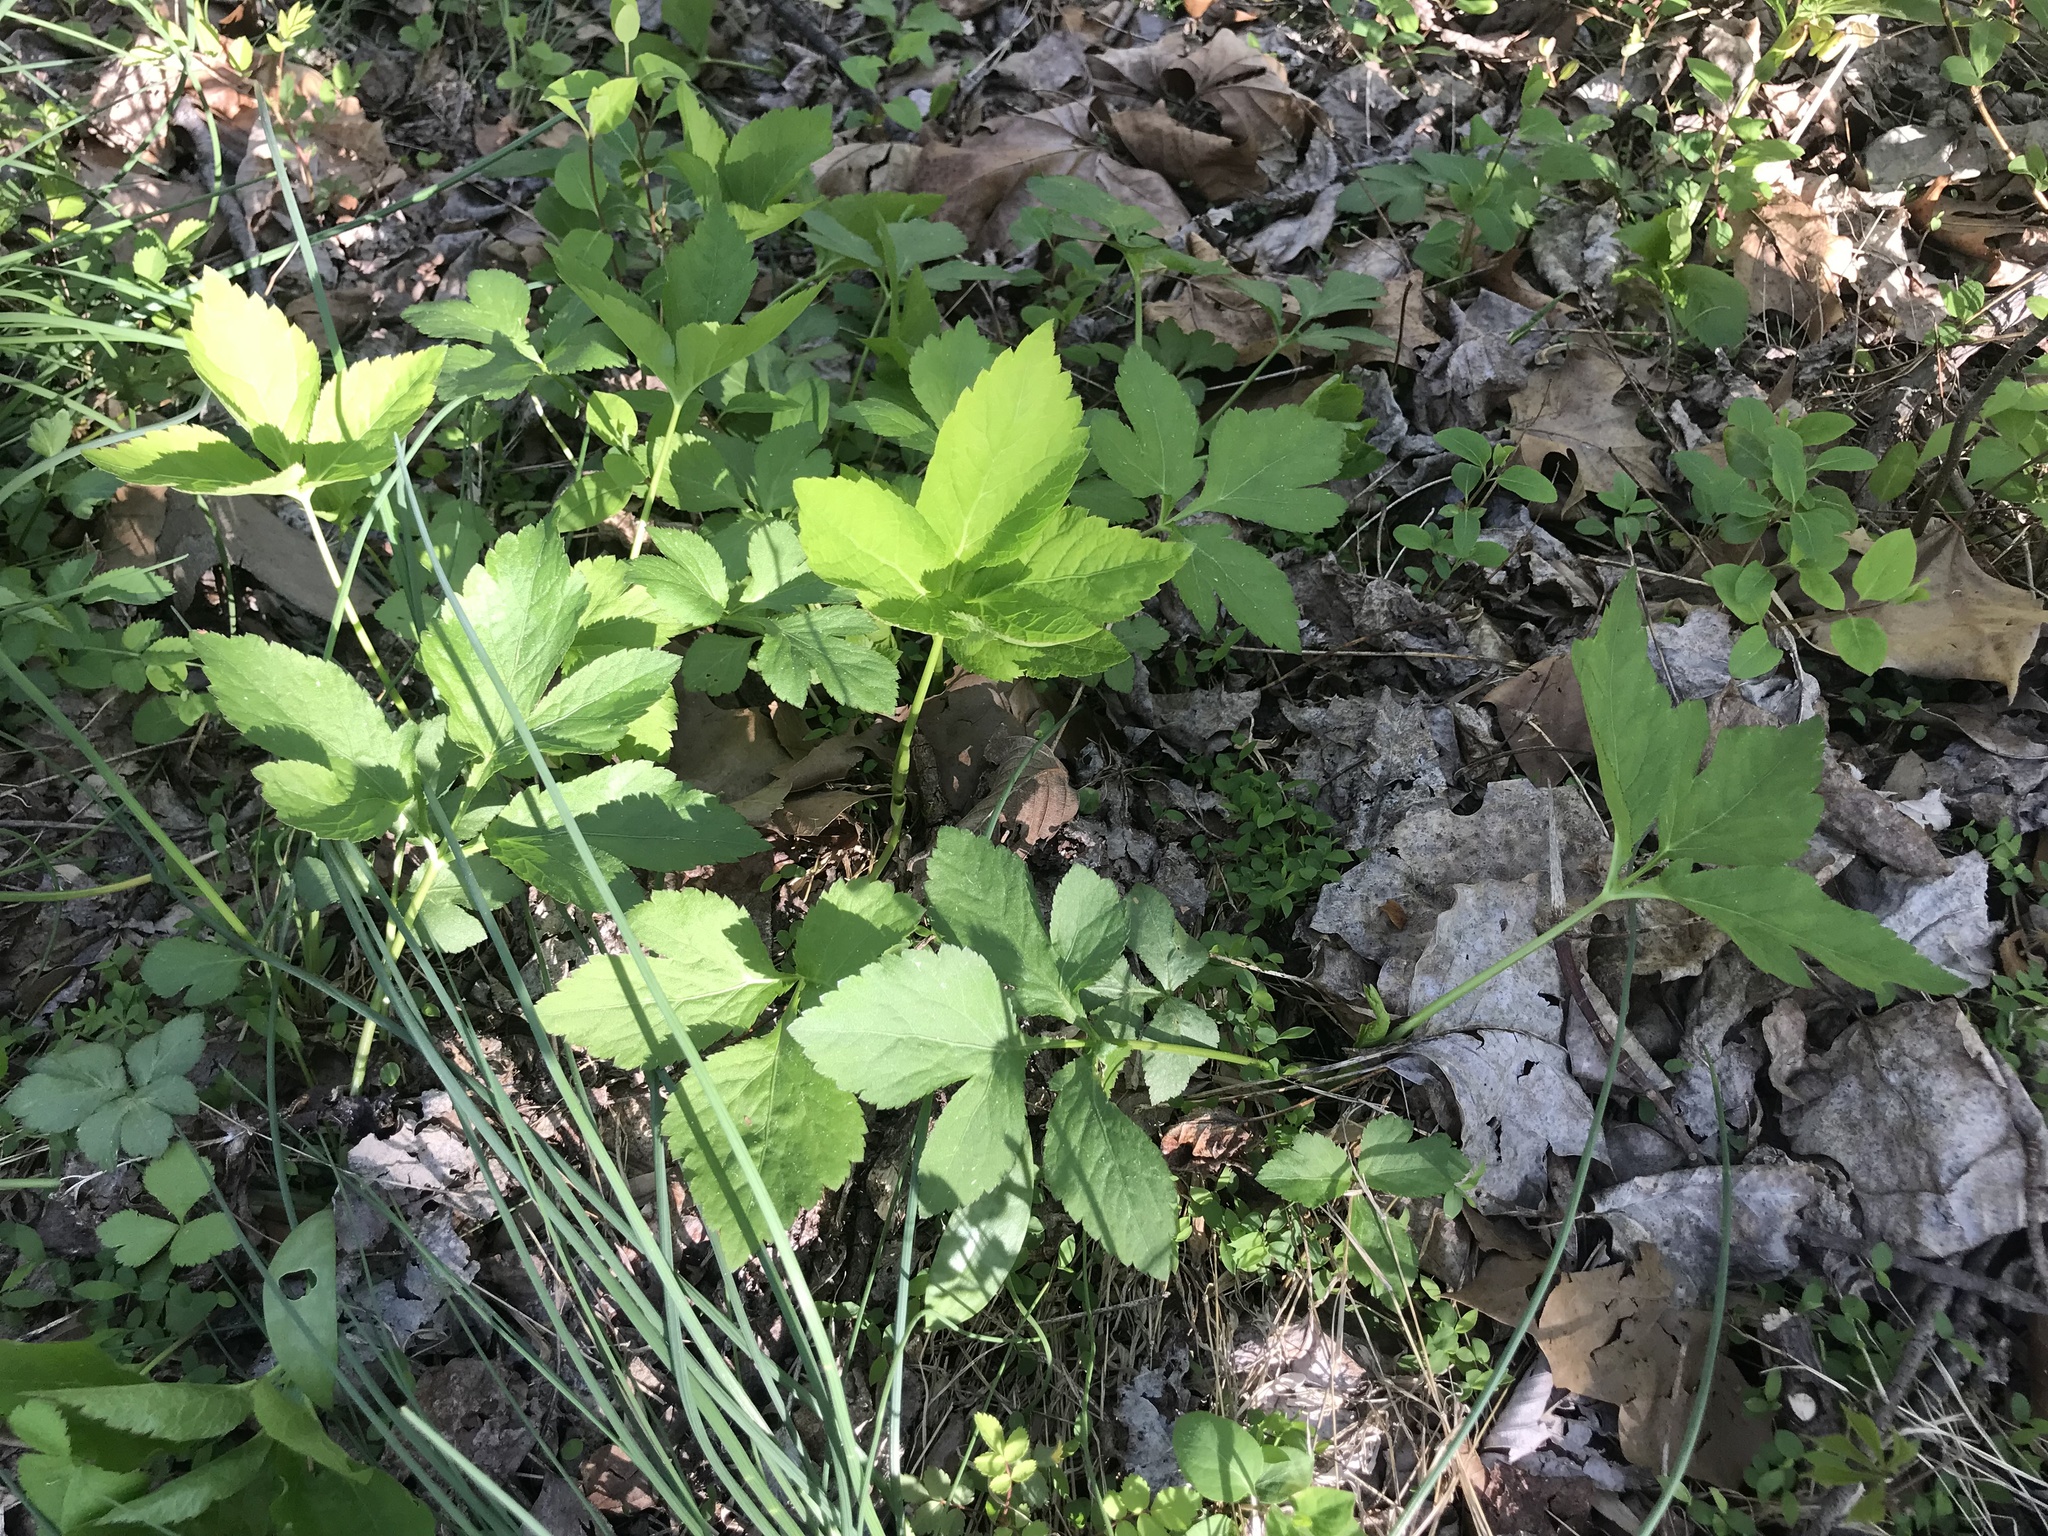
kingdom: Plantae
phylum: Tracheophyta
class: Magnoliopsida
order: Apiales
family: Apiaceae
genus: Cryptotaenia
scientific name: Cryptotaenia canadensis
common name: Honewort
